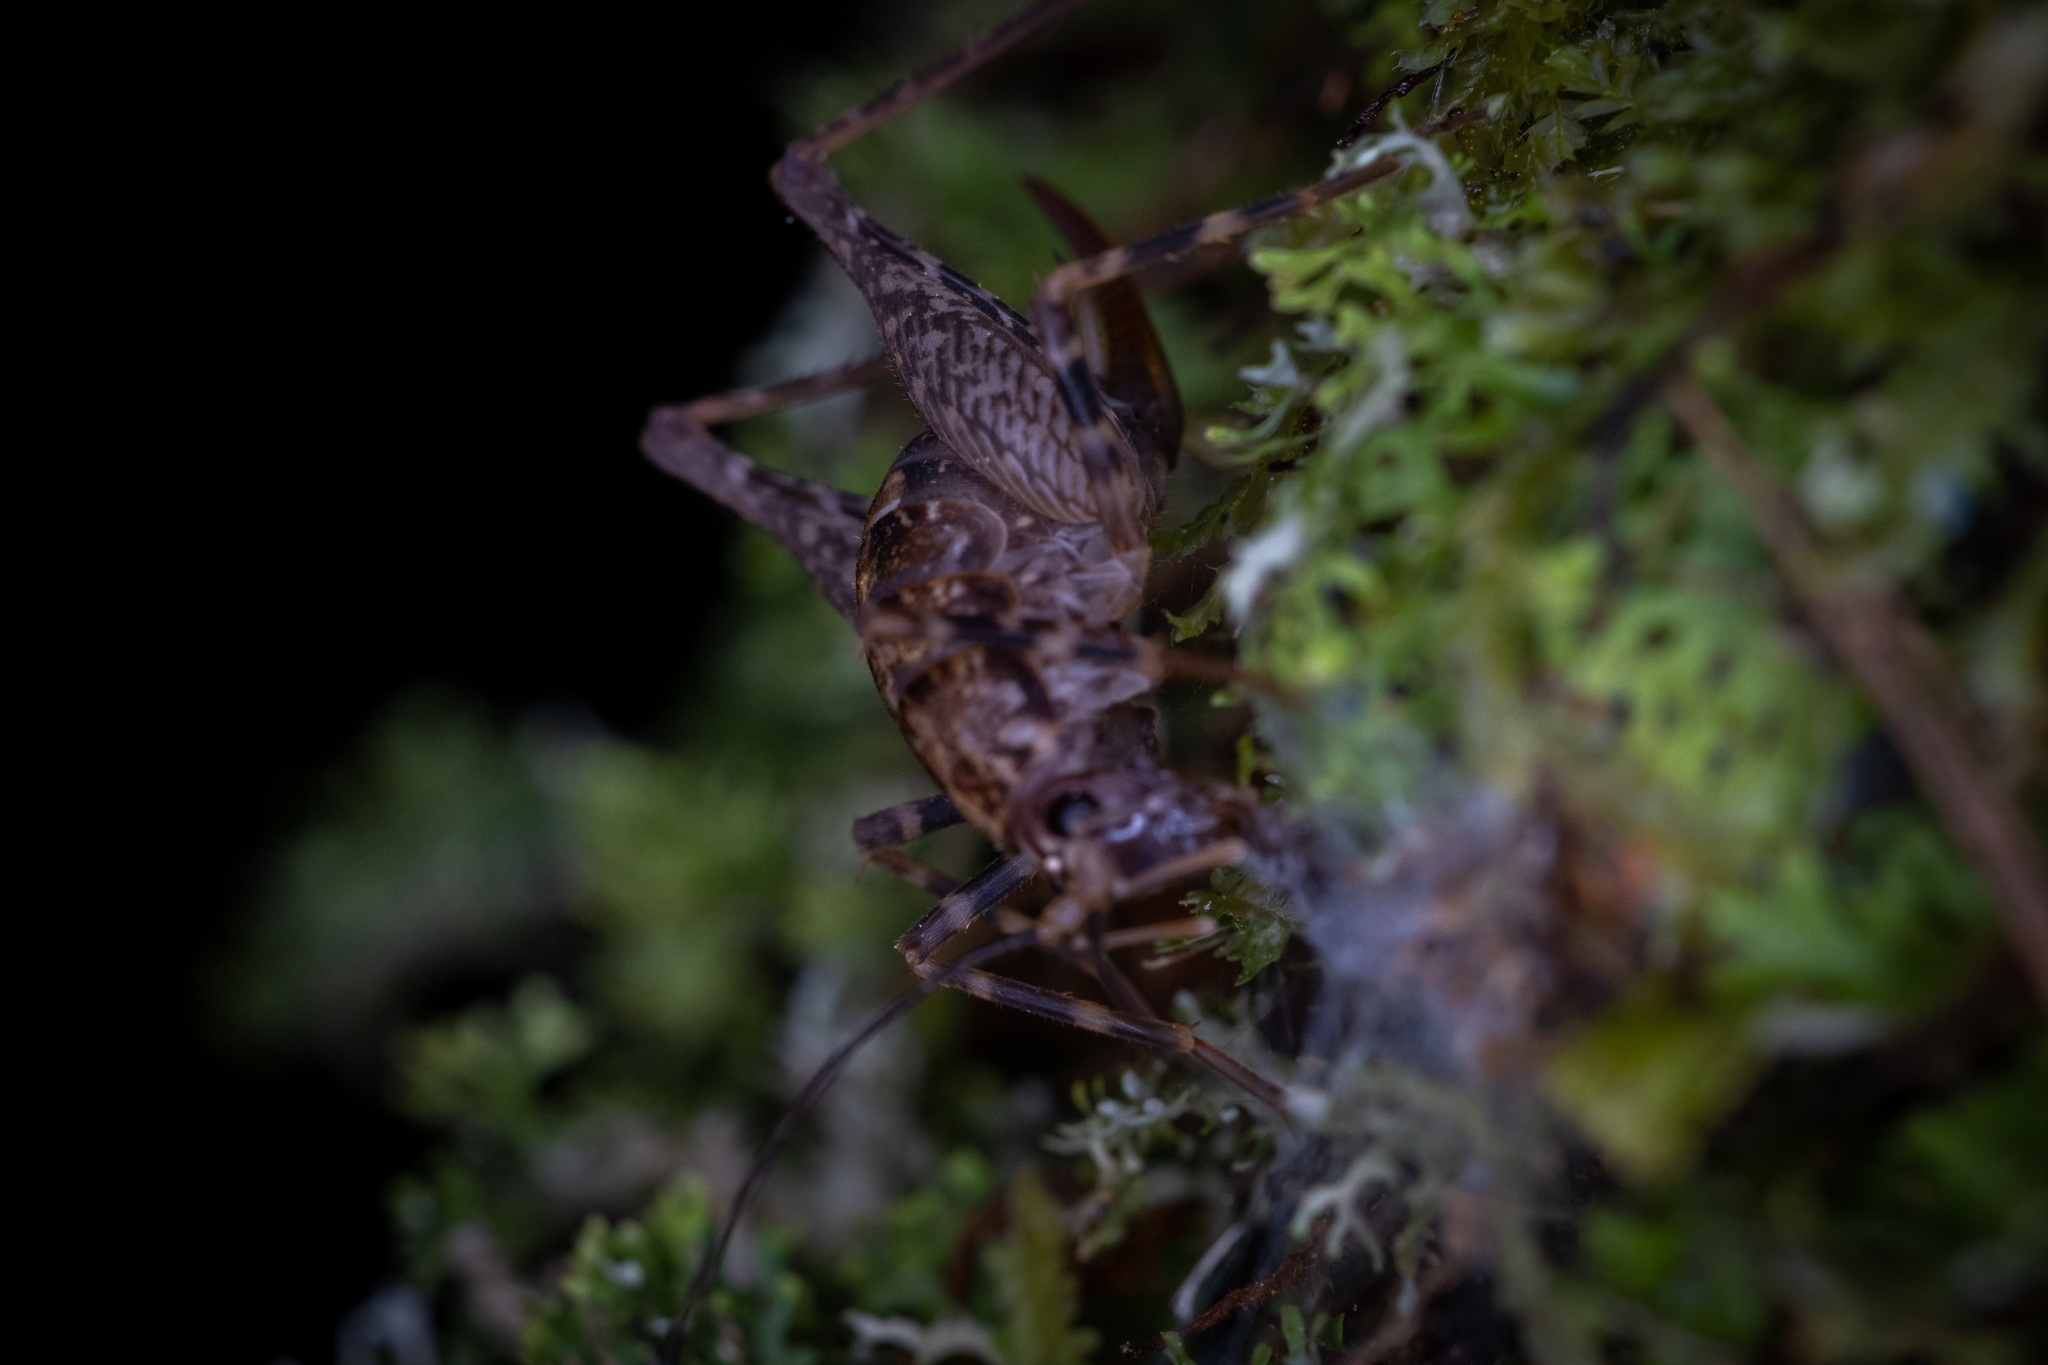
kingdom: Animalia
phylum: Arthropoda
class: Insecta
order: Orthoptera
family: Rhaphidophoridae
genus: Pleioplectron
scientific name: Pleioplectron hudsoni
